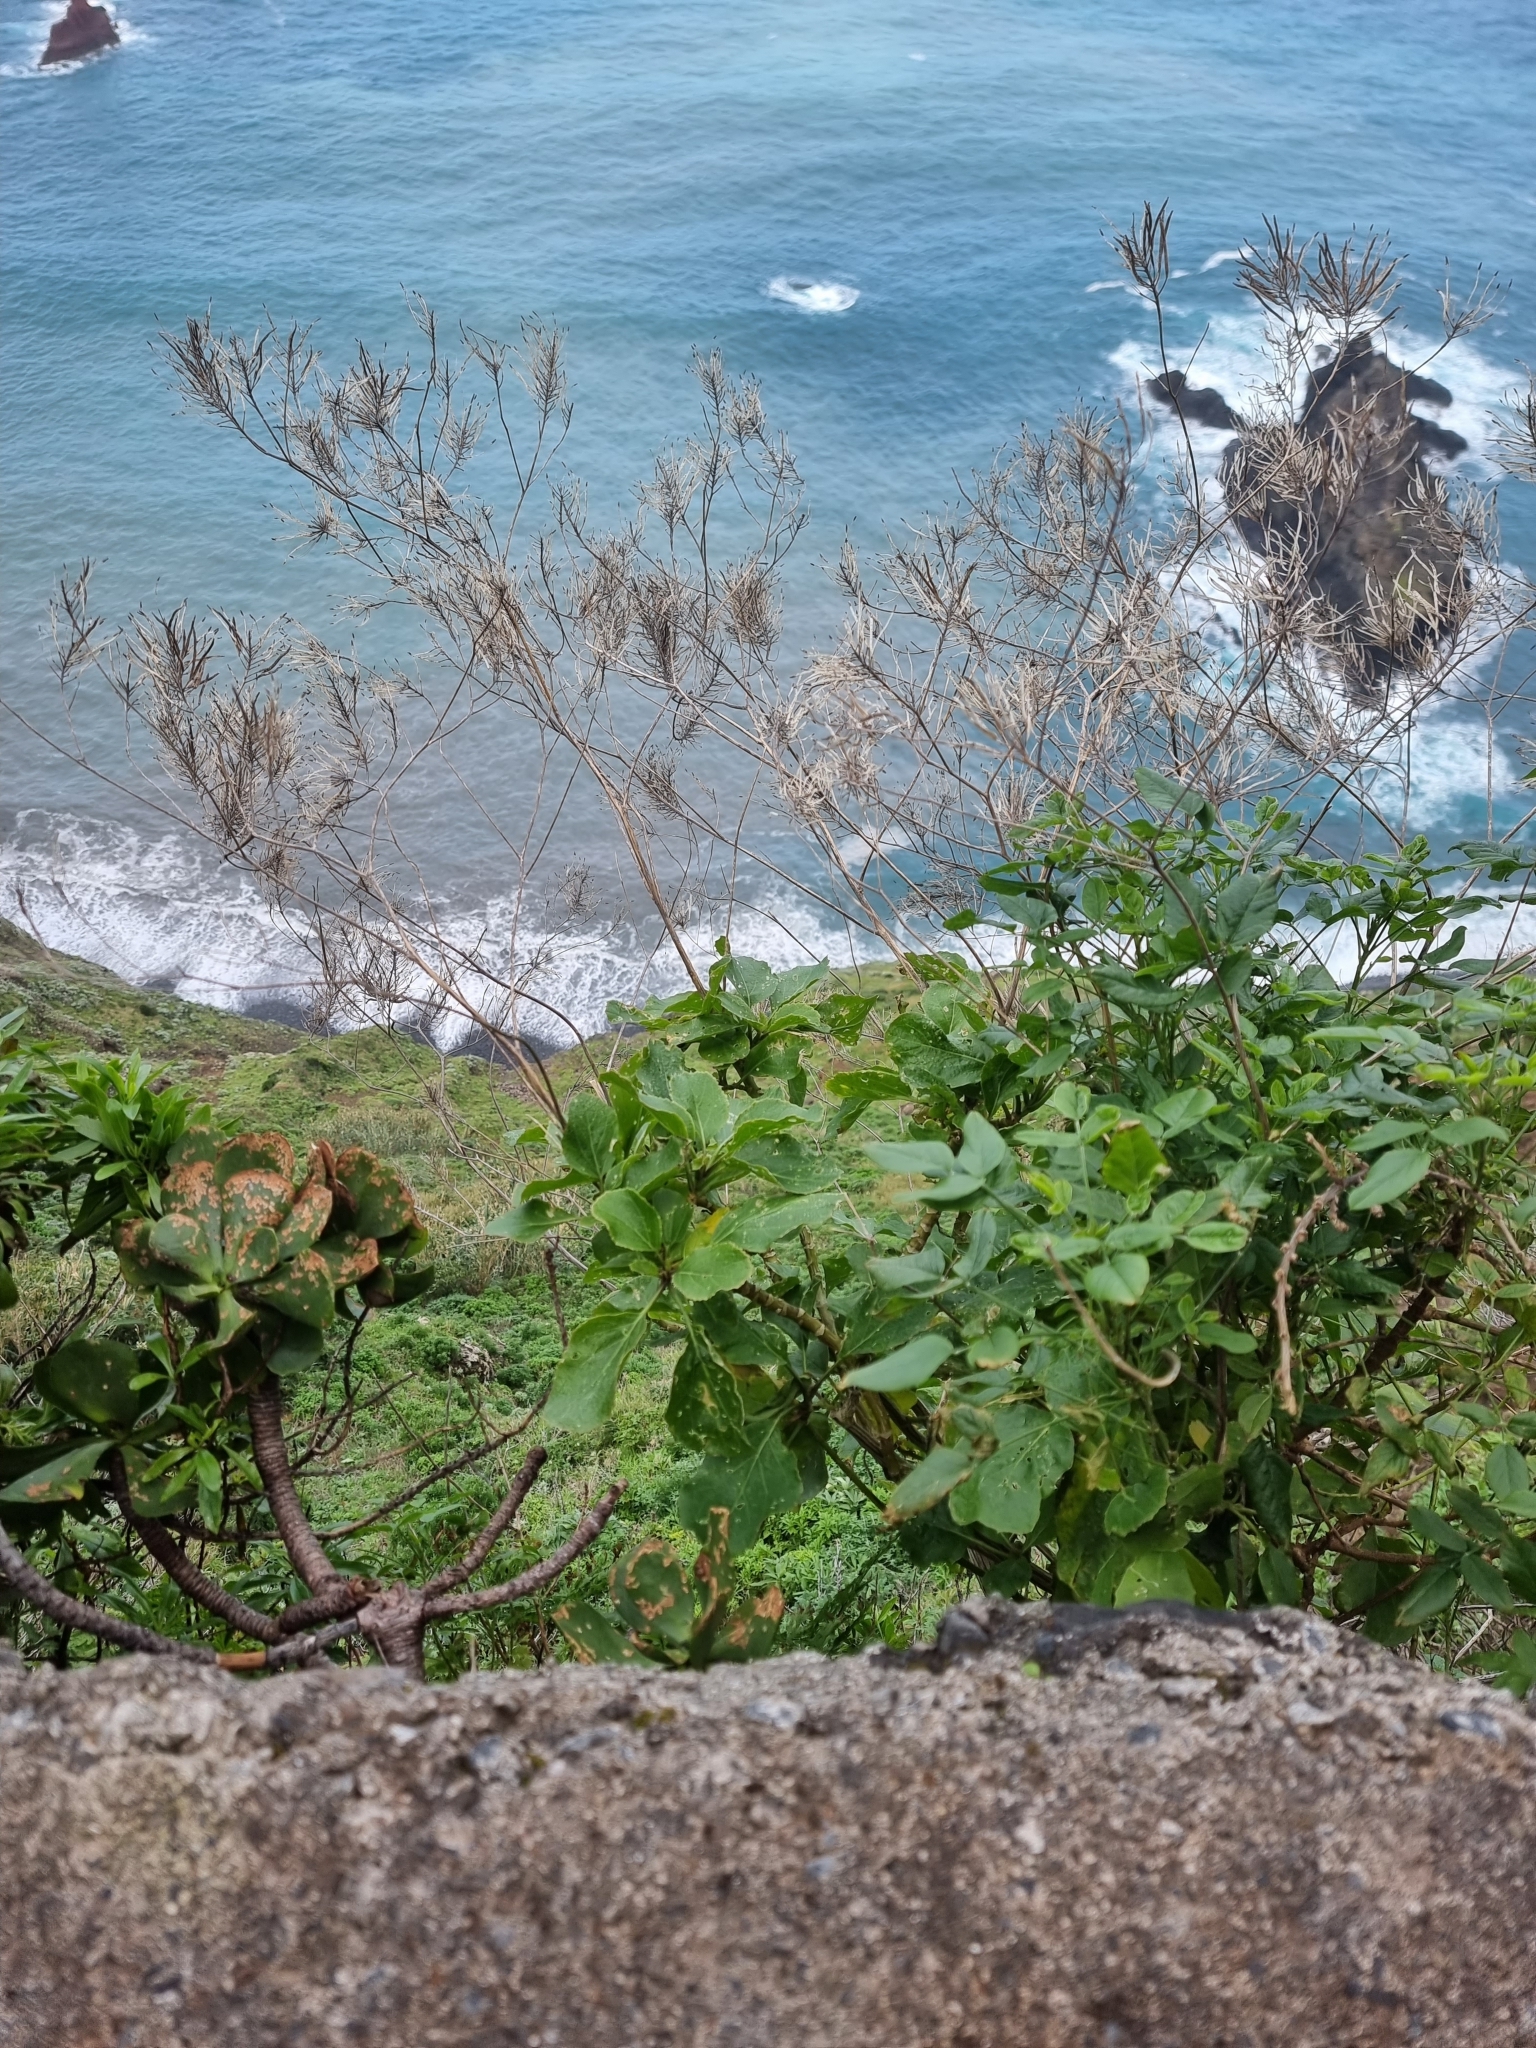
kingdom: Plantae
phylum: Tracheophyta
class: Magnoliopsida
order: Brassicales
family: Brassicaceae
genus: Sinapidendron
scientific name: Sinapidendron rupestre
